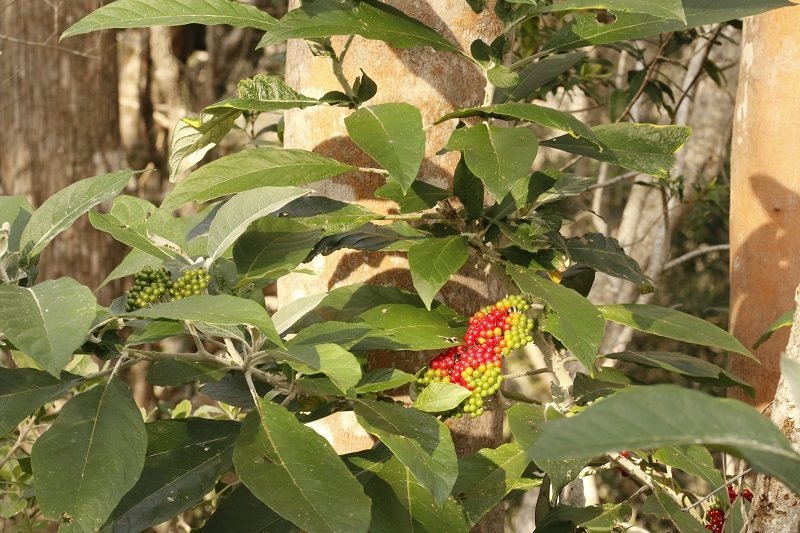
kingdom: Plantae
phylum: Tracheophyta
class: Magnoliopsida
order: Solanales
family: Solanaceae
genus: Solanum
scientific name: Solanum giganteum
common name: Healing-leaf-tree
